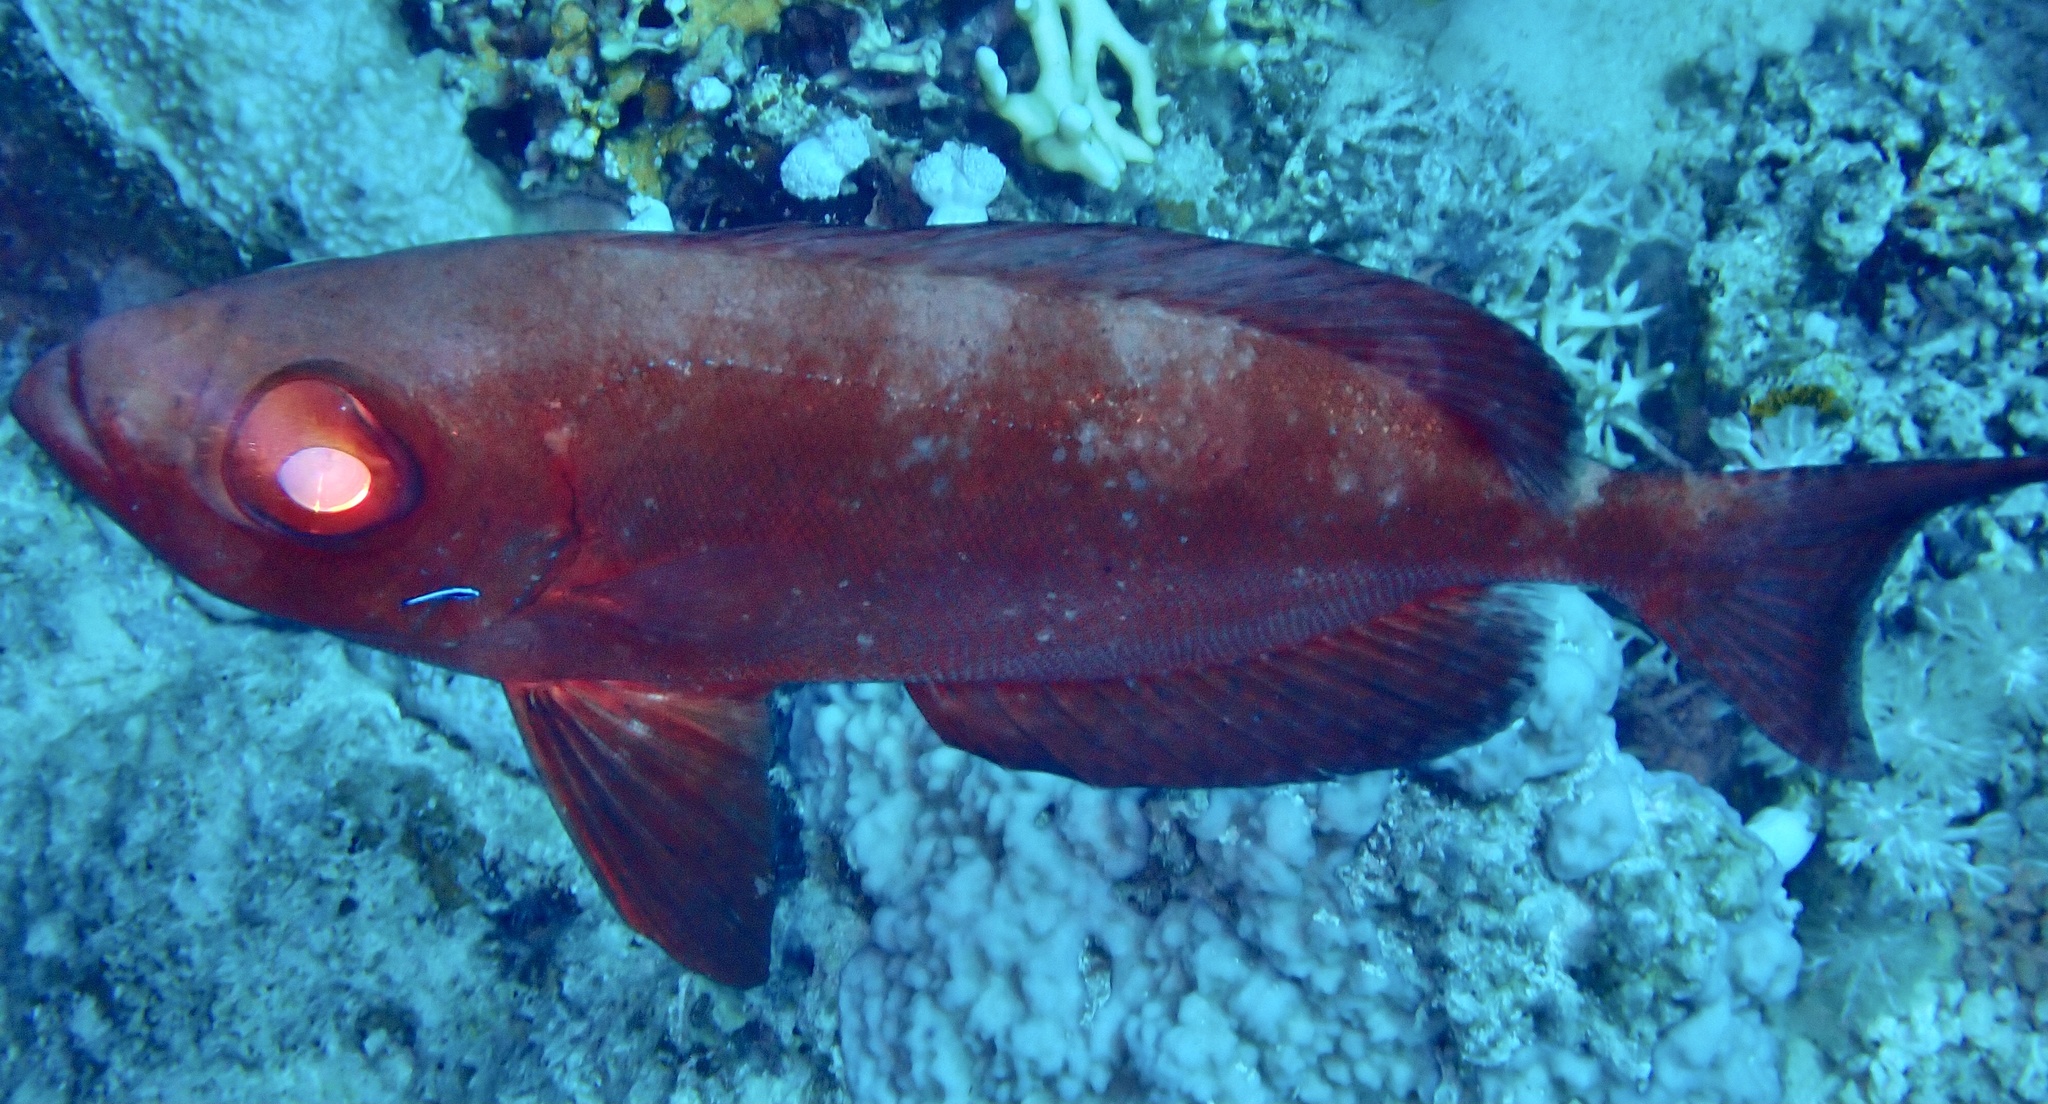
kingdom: Animalia
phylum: Chordata
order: Perciformes
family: Priacanthidae
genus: Priacanthus
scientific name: Priacanthus hamrur
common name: Moontail bullseye
